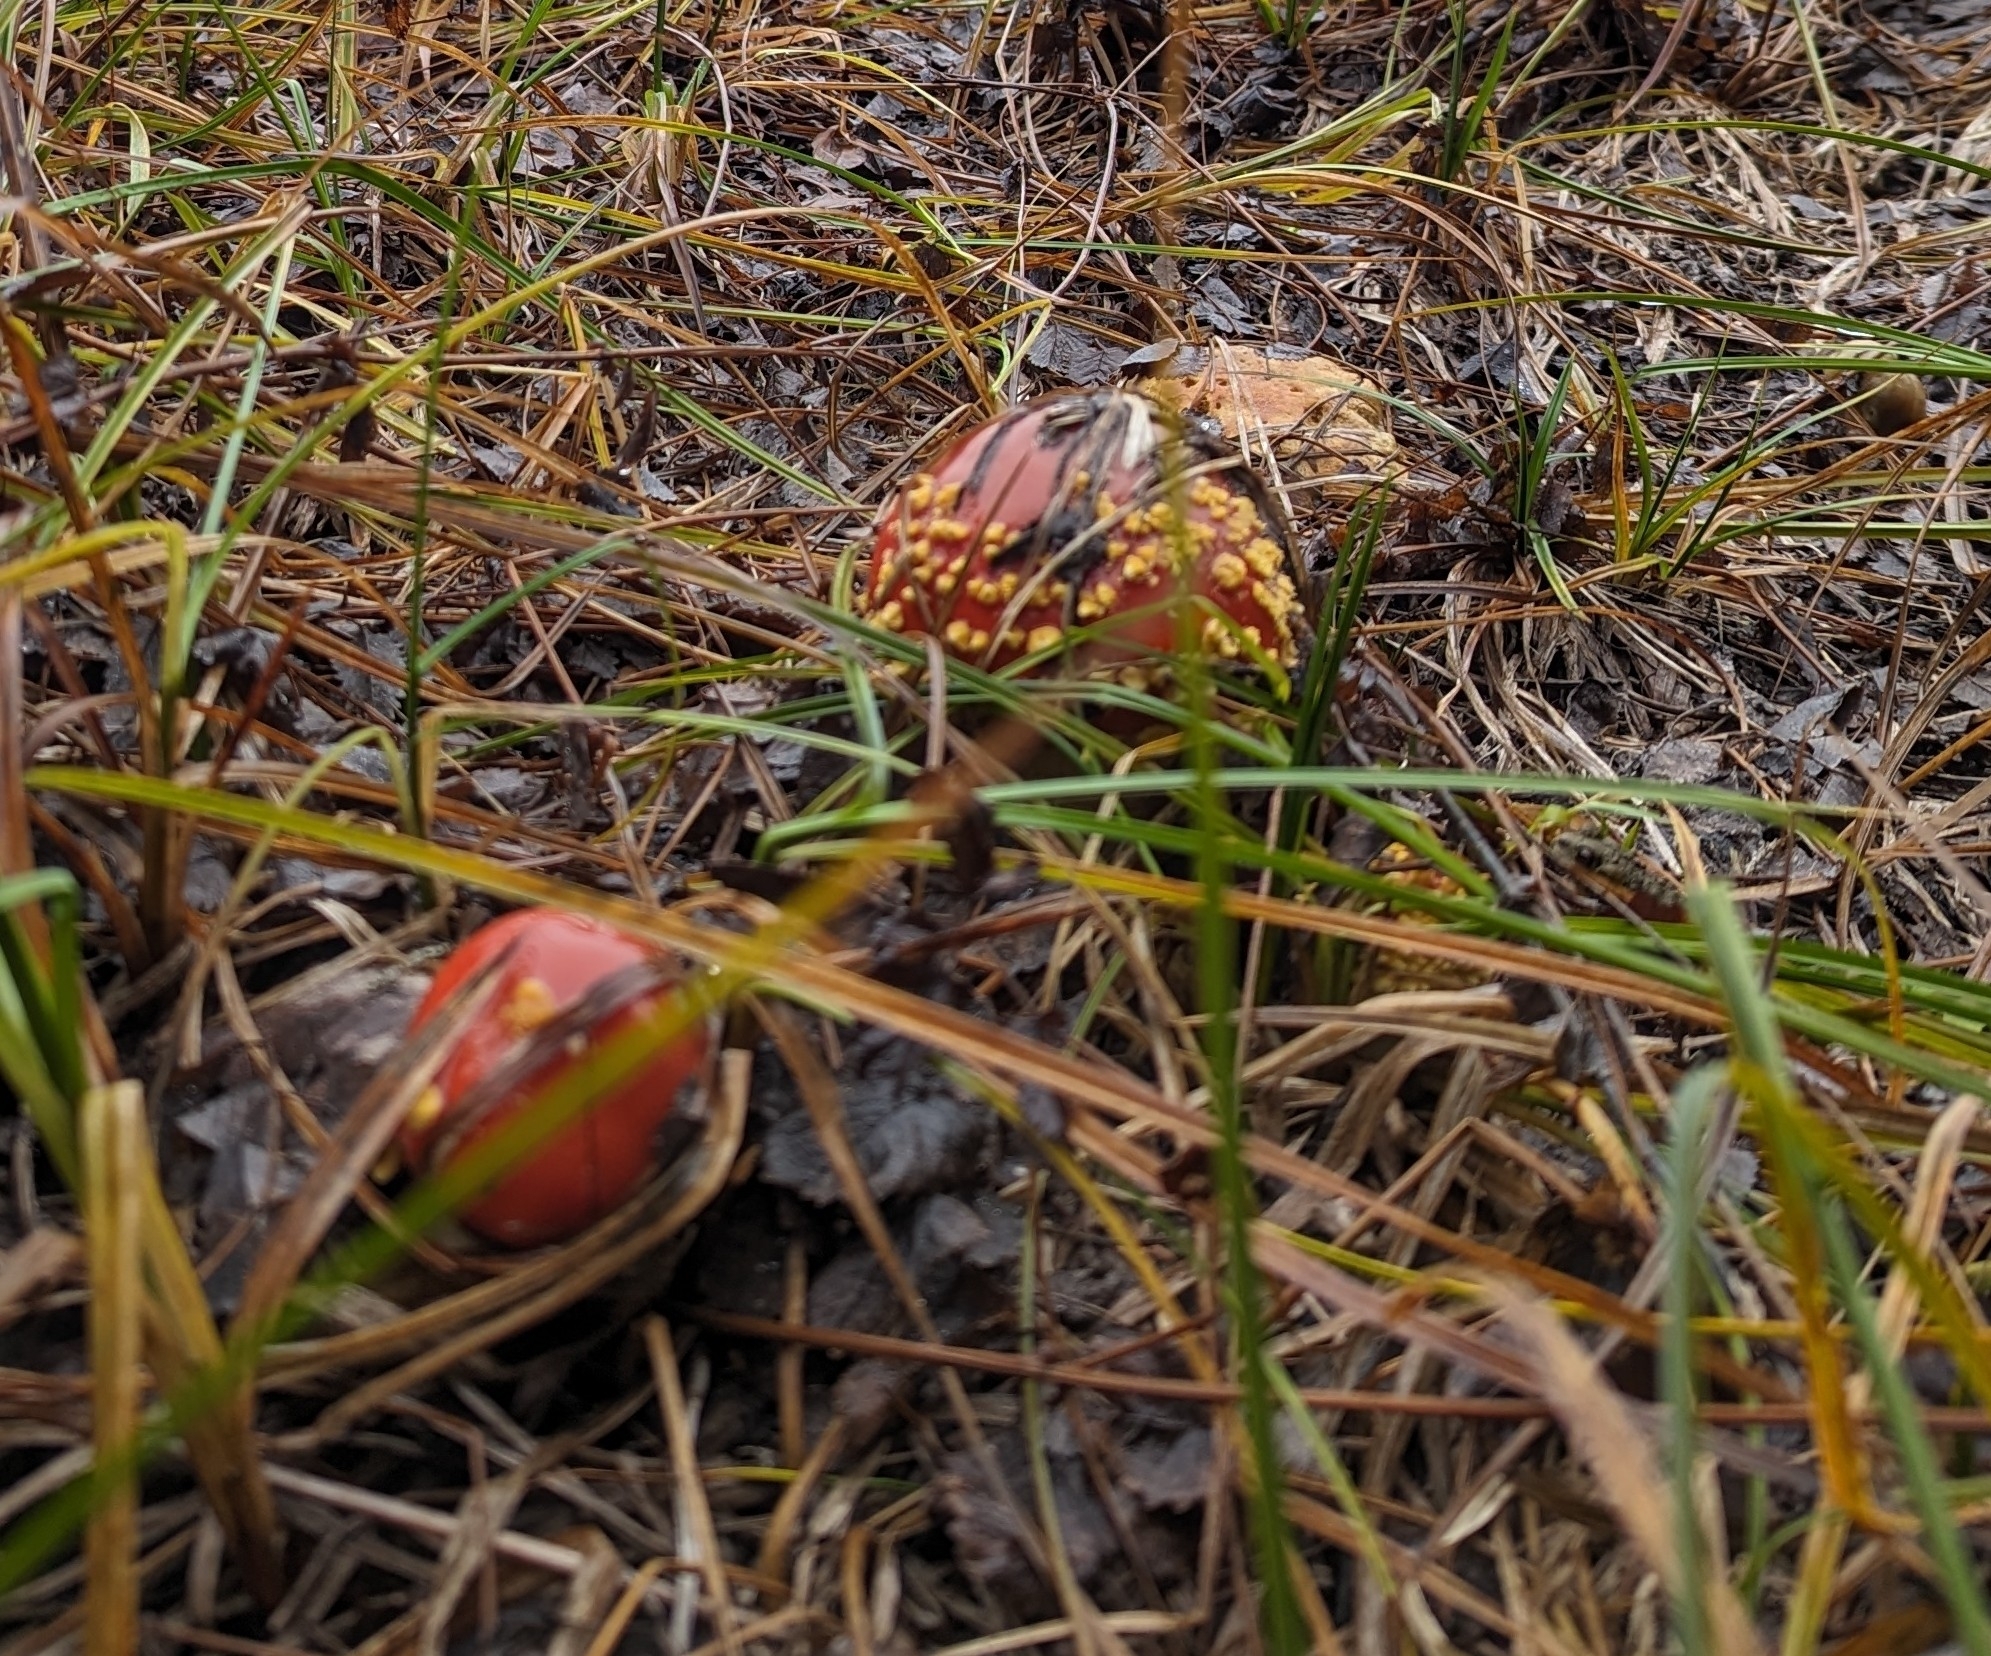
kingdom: Fungi
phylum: Basidiomycota
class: Agaricomycetes
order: Agaricales
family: Amanitaceae
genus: Amanita
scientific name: Amanita muscaria
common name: Fly agaric
